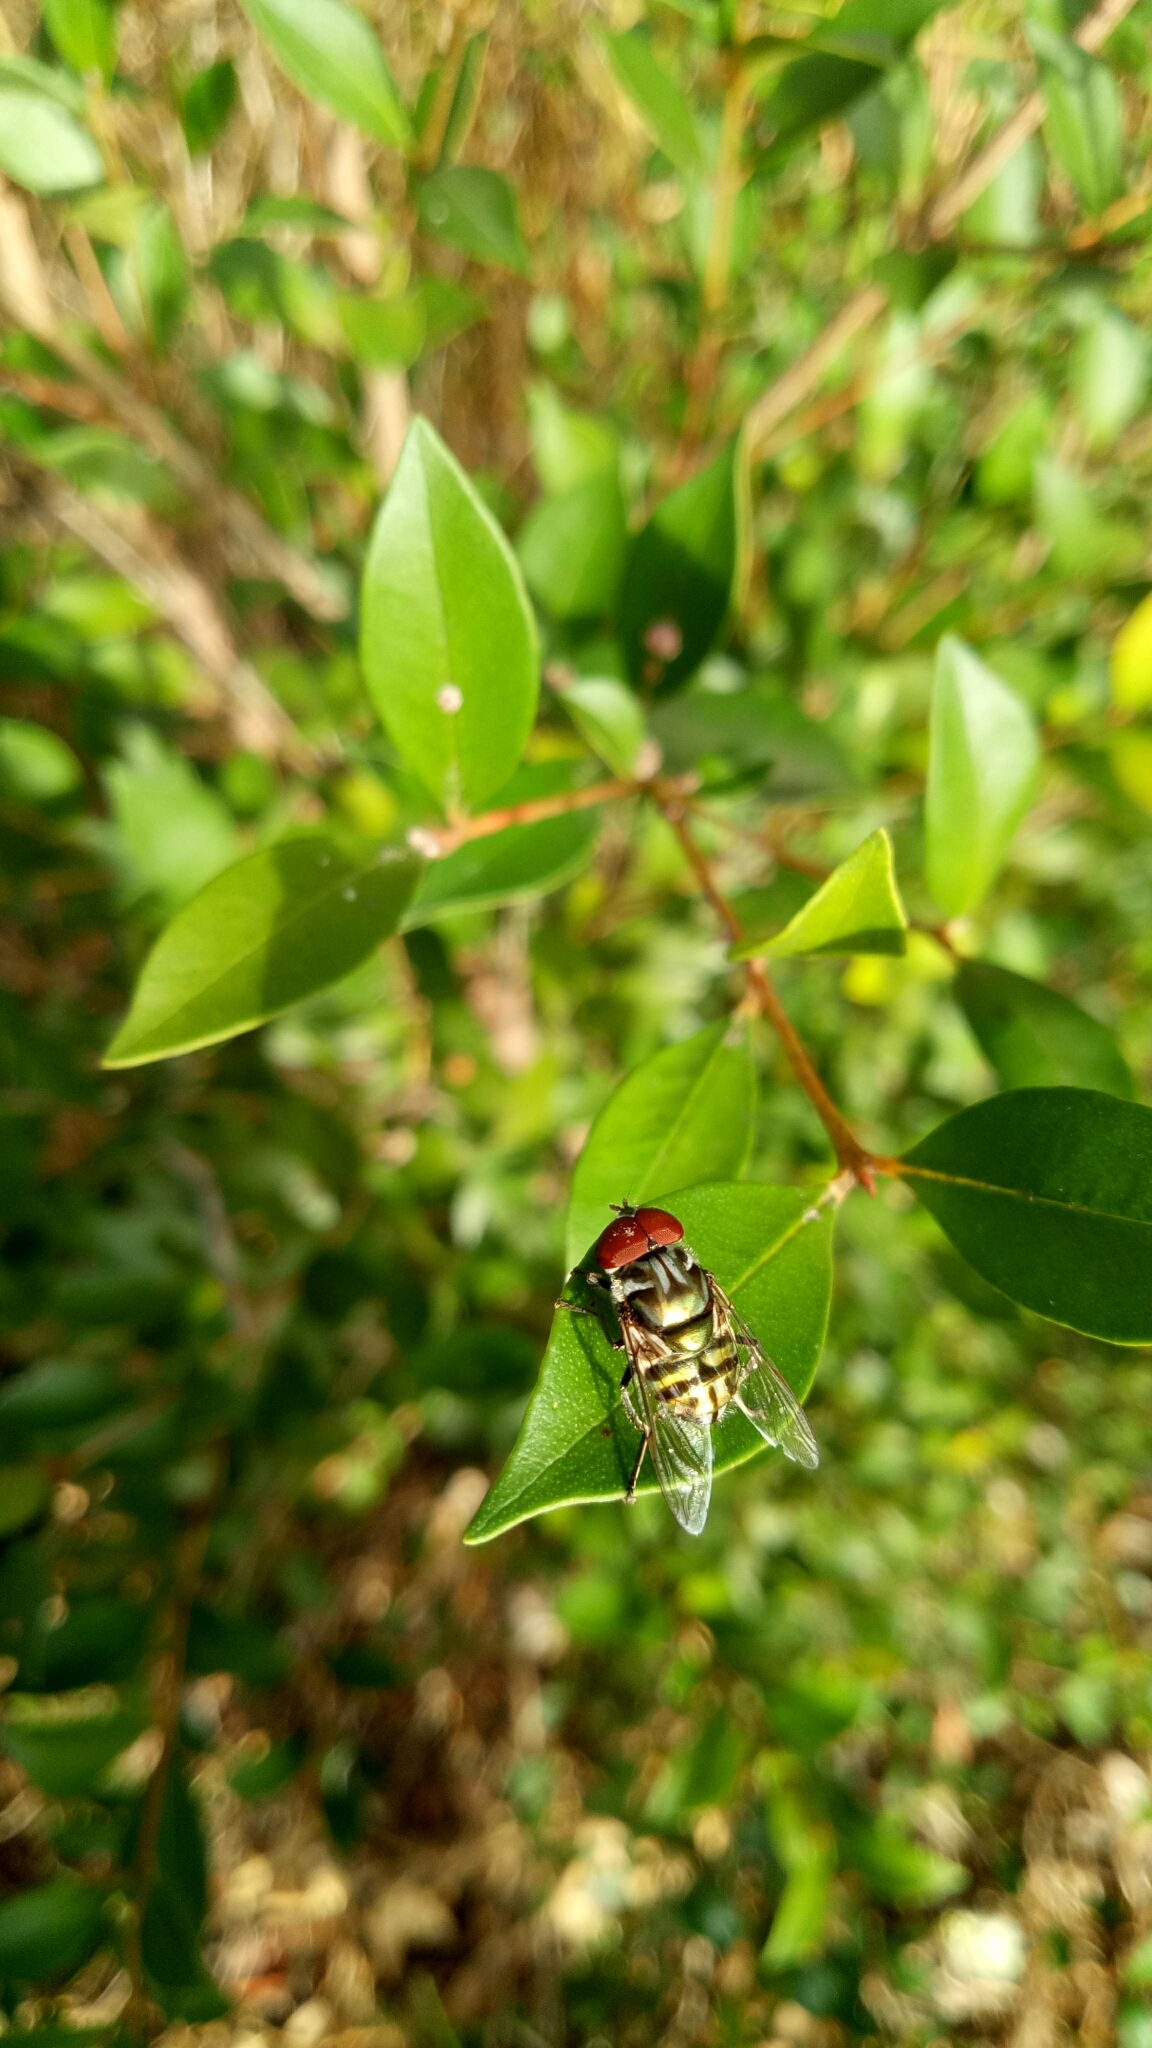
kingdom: Animalia
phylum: Arthropoda
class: Insecta
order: Diptera
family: Syrphidae
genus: Austalis
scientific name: Austalis muscoides
